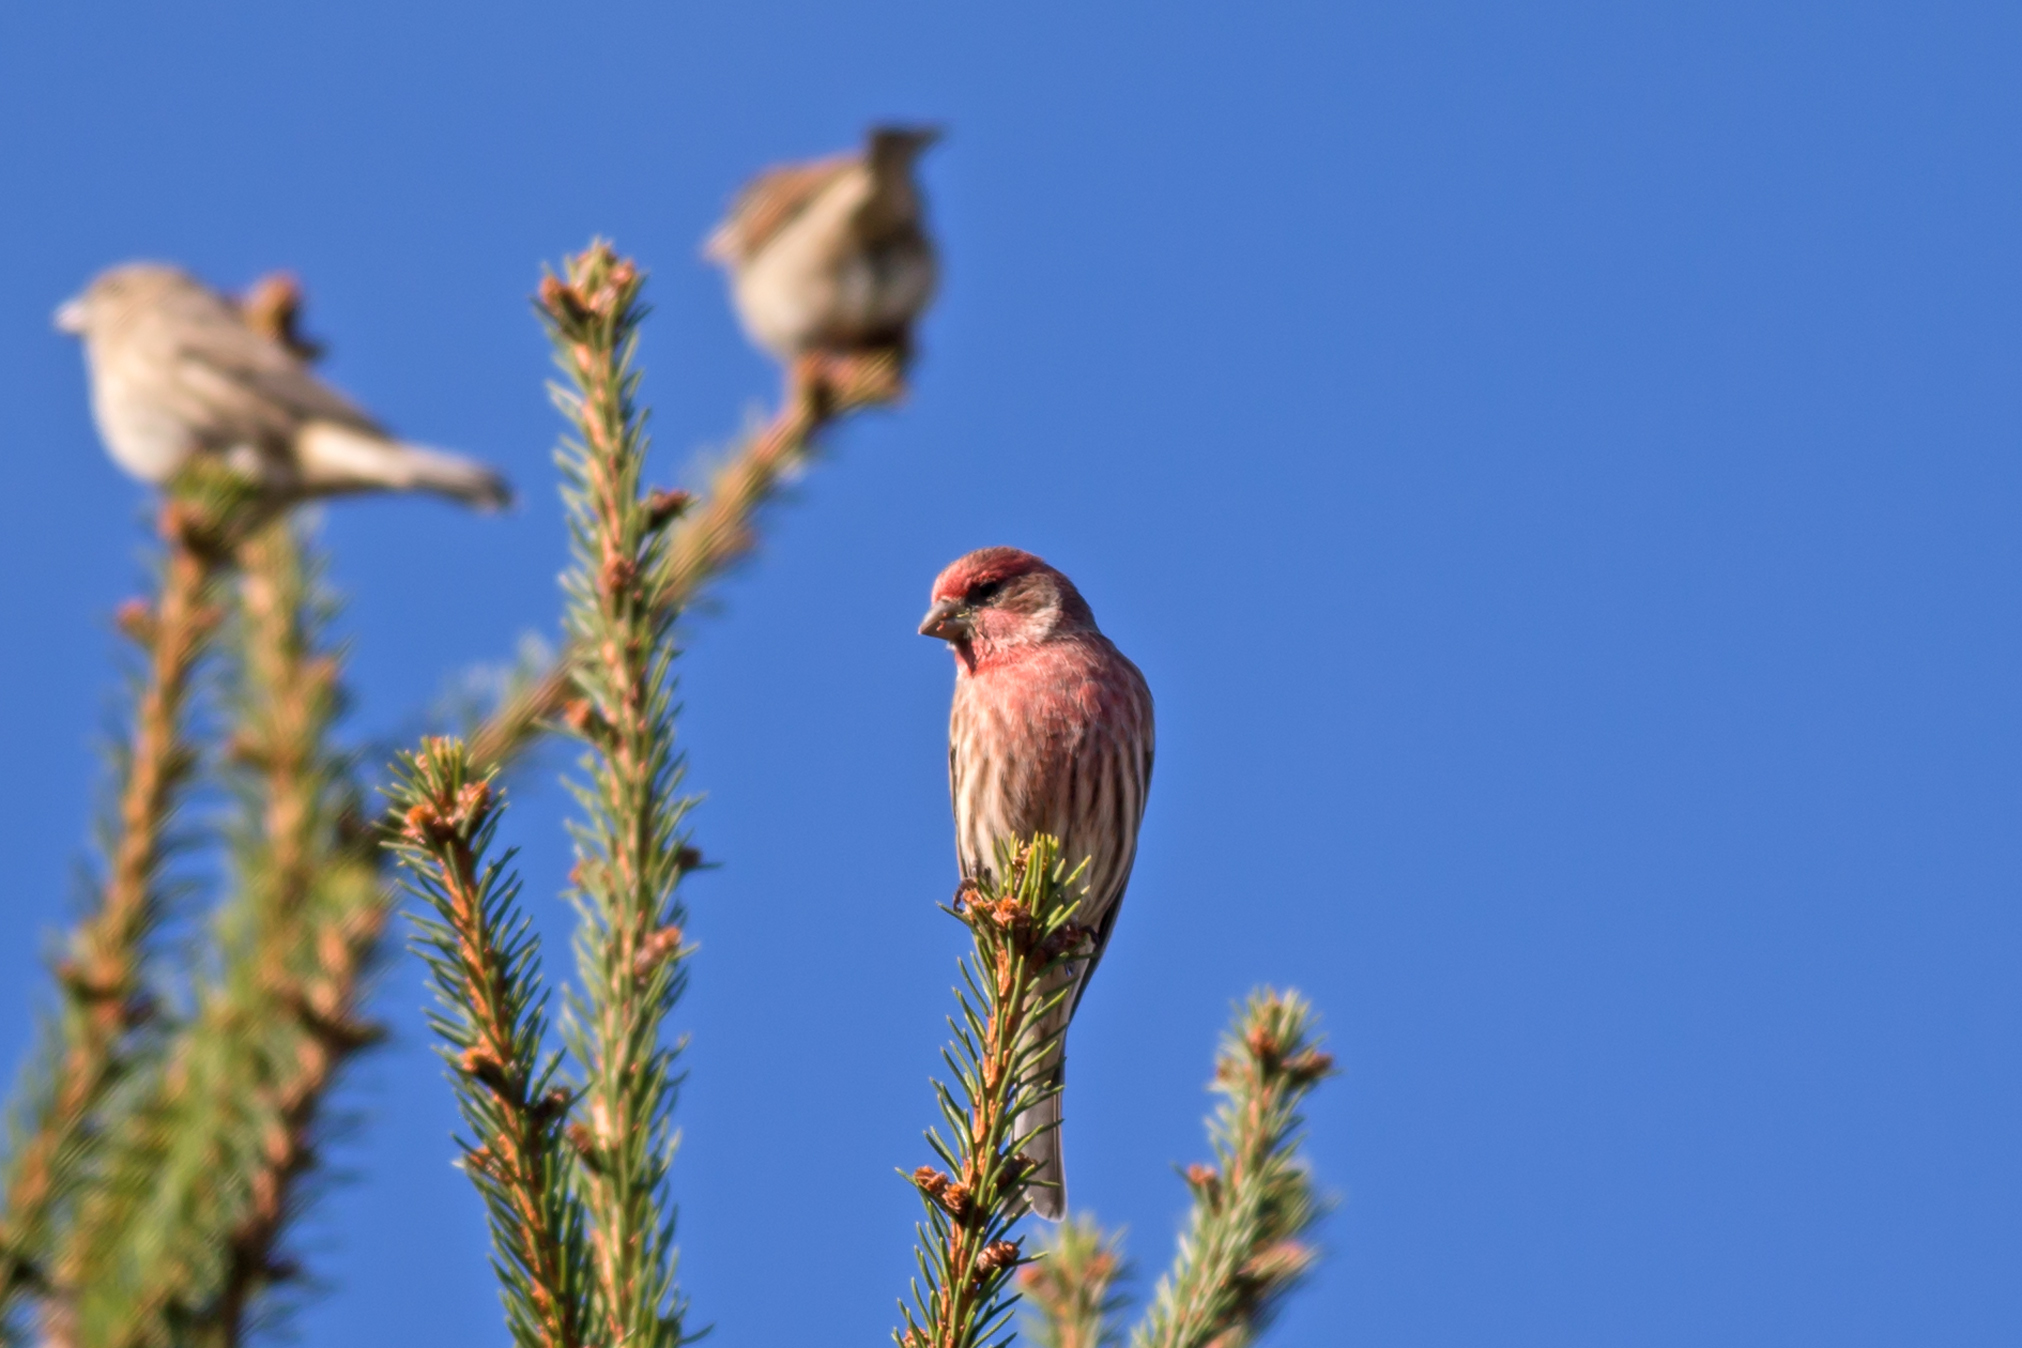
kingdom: Animalia
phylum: Chordata
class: Aves
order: Passeriformes
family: Fringillidae
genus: Haemorhous
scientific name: Haemorhous mexicanus
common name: House finch
